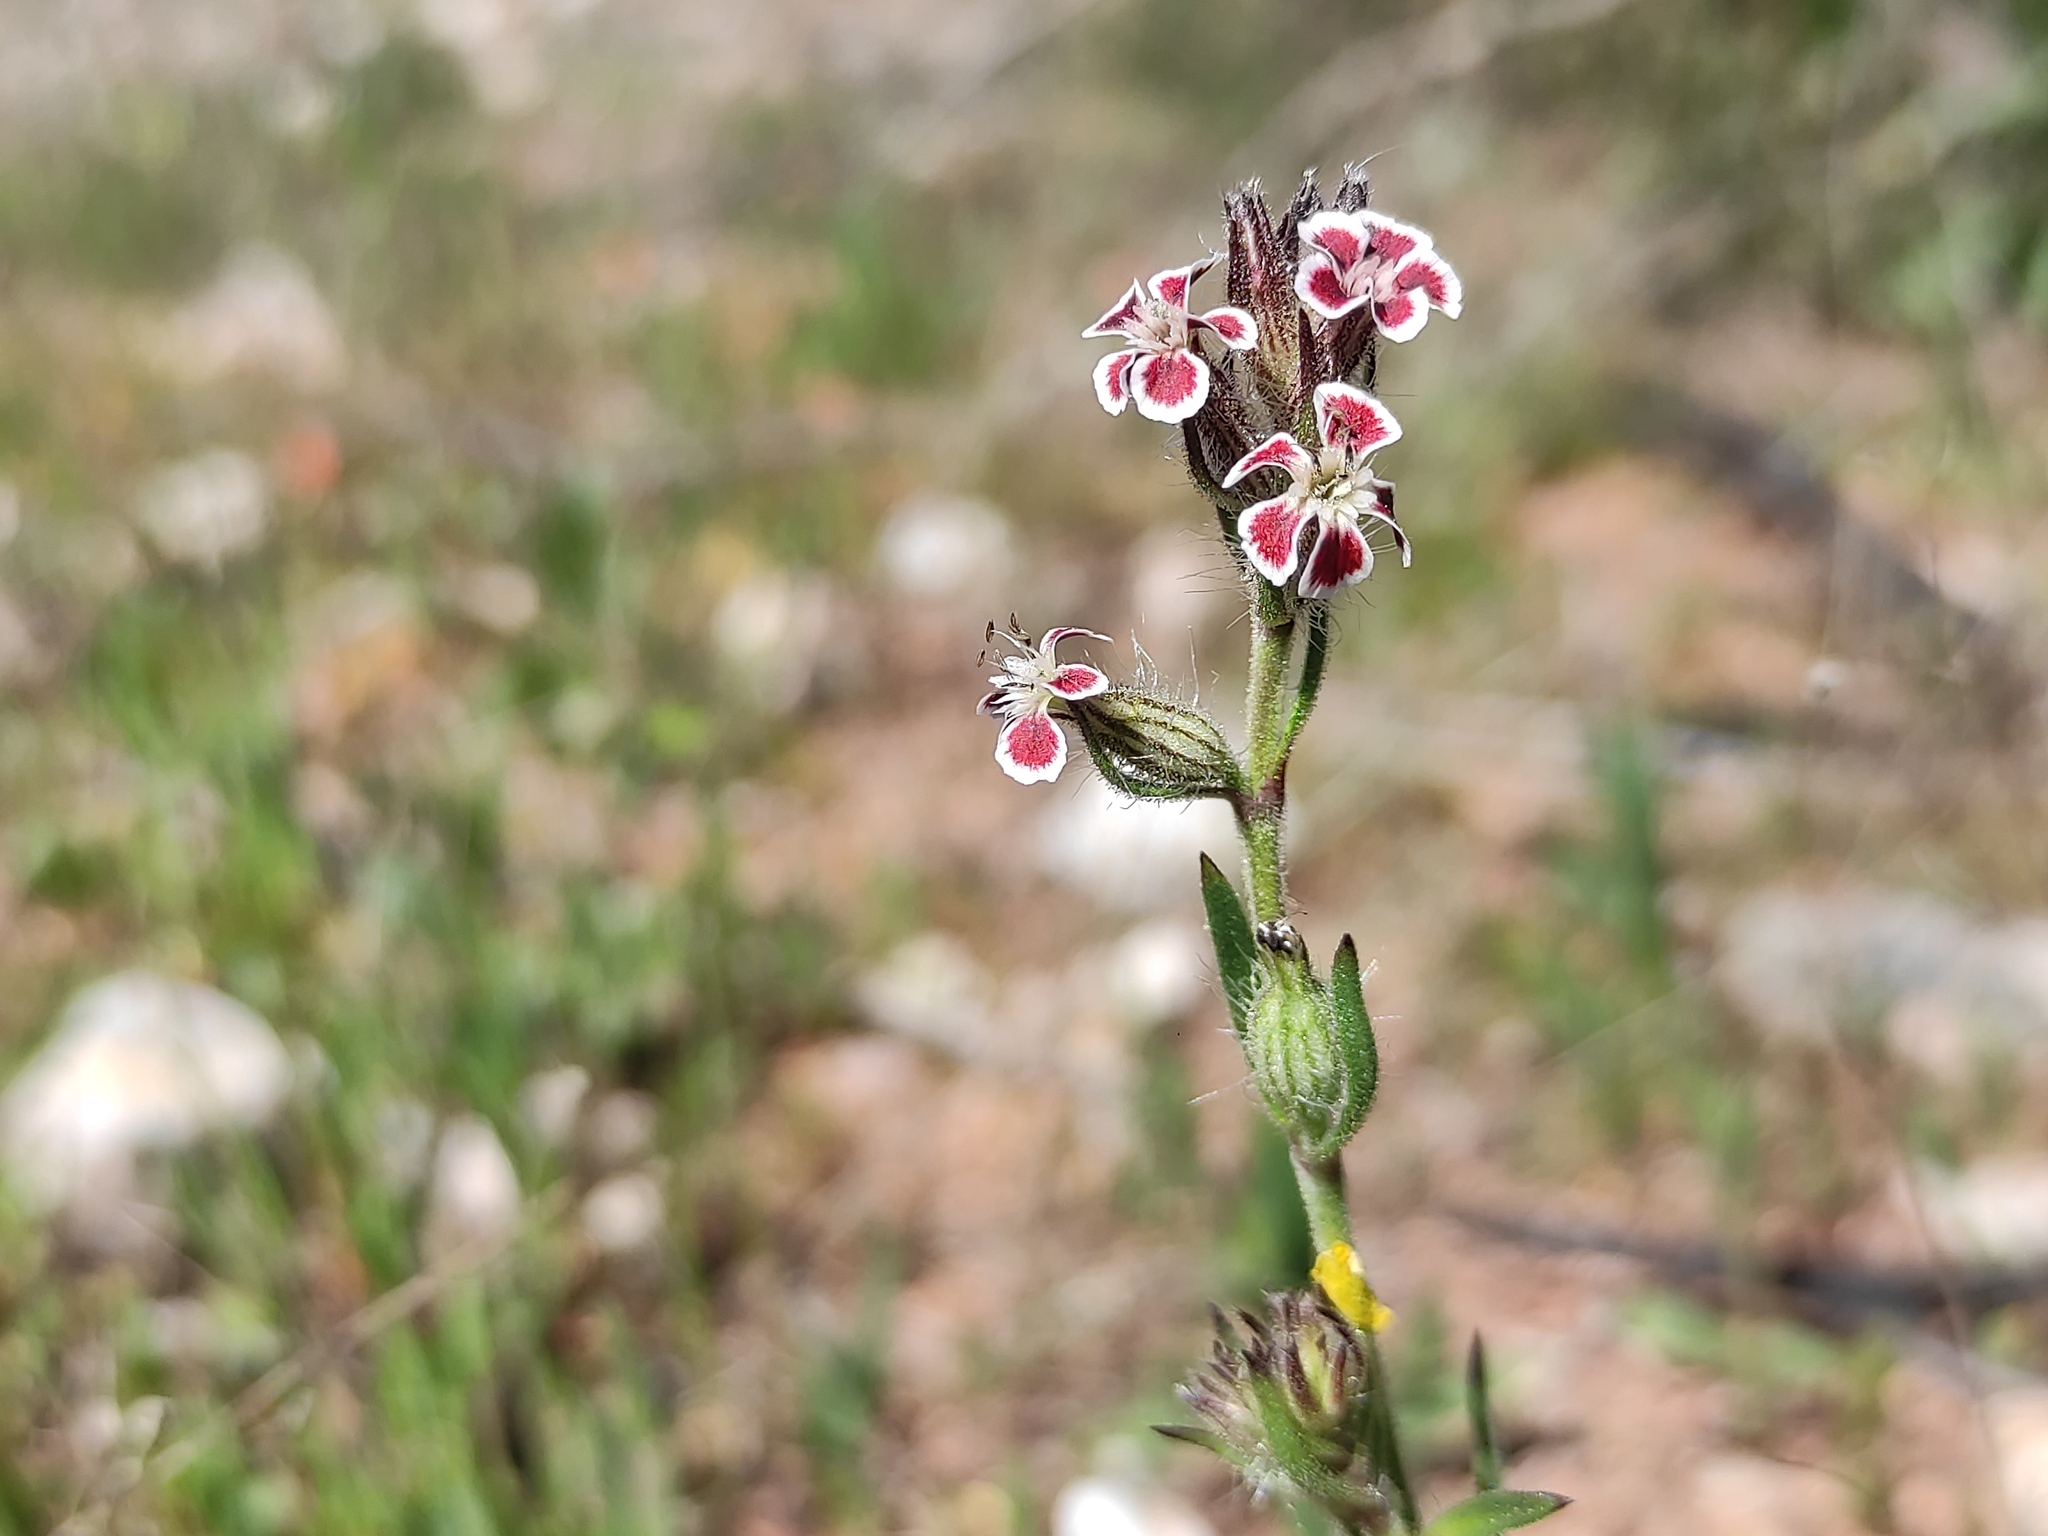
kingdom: Plantae
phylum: Tracheophyta
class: Magnoliopsida
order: Caryophyllales
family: Caryophyllaceae
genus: Silene
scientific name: Silene gallica
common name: Small-flowered catchfly
